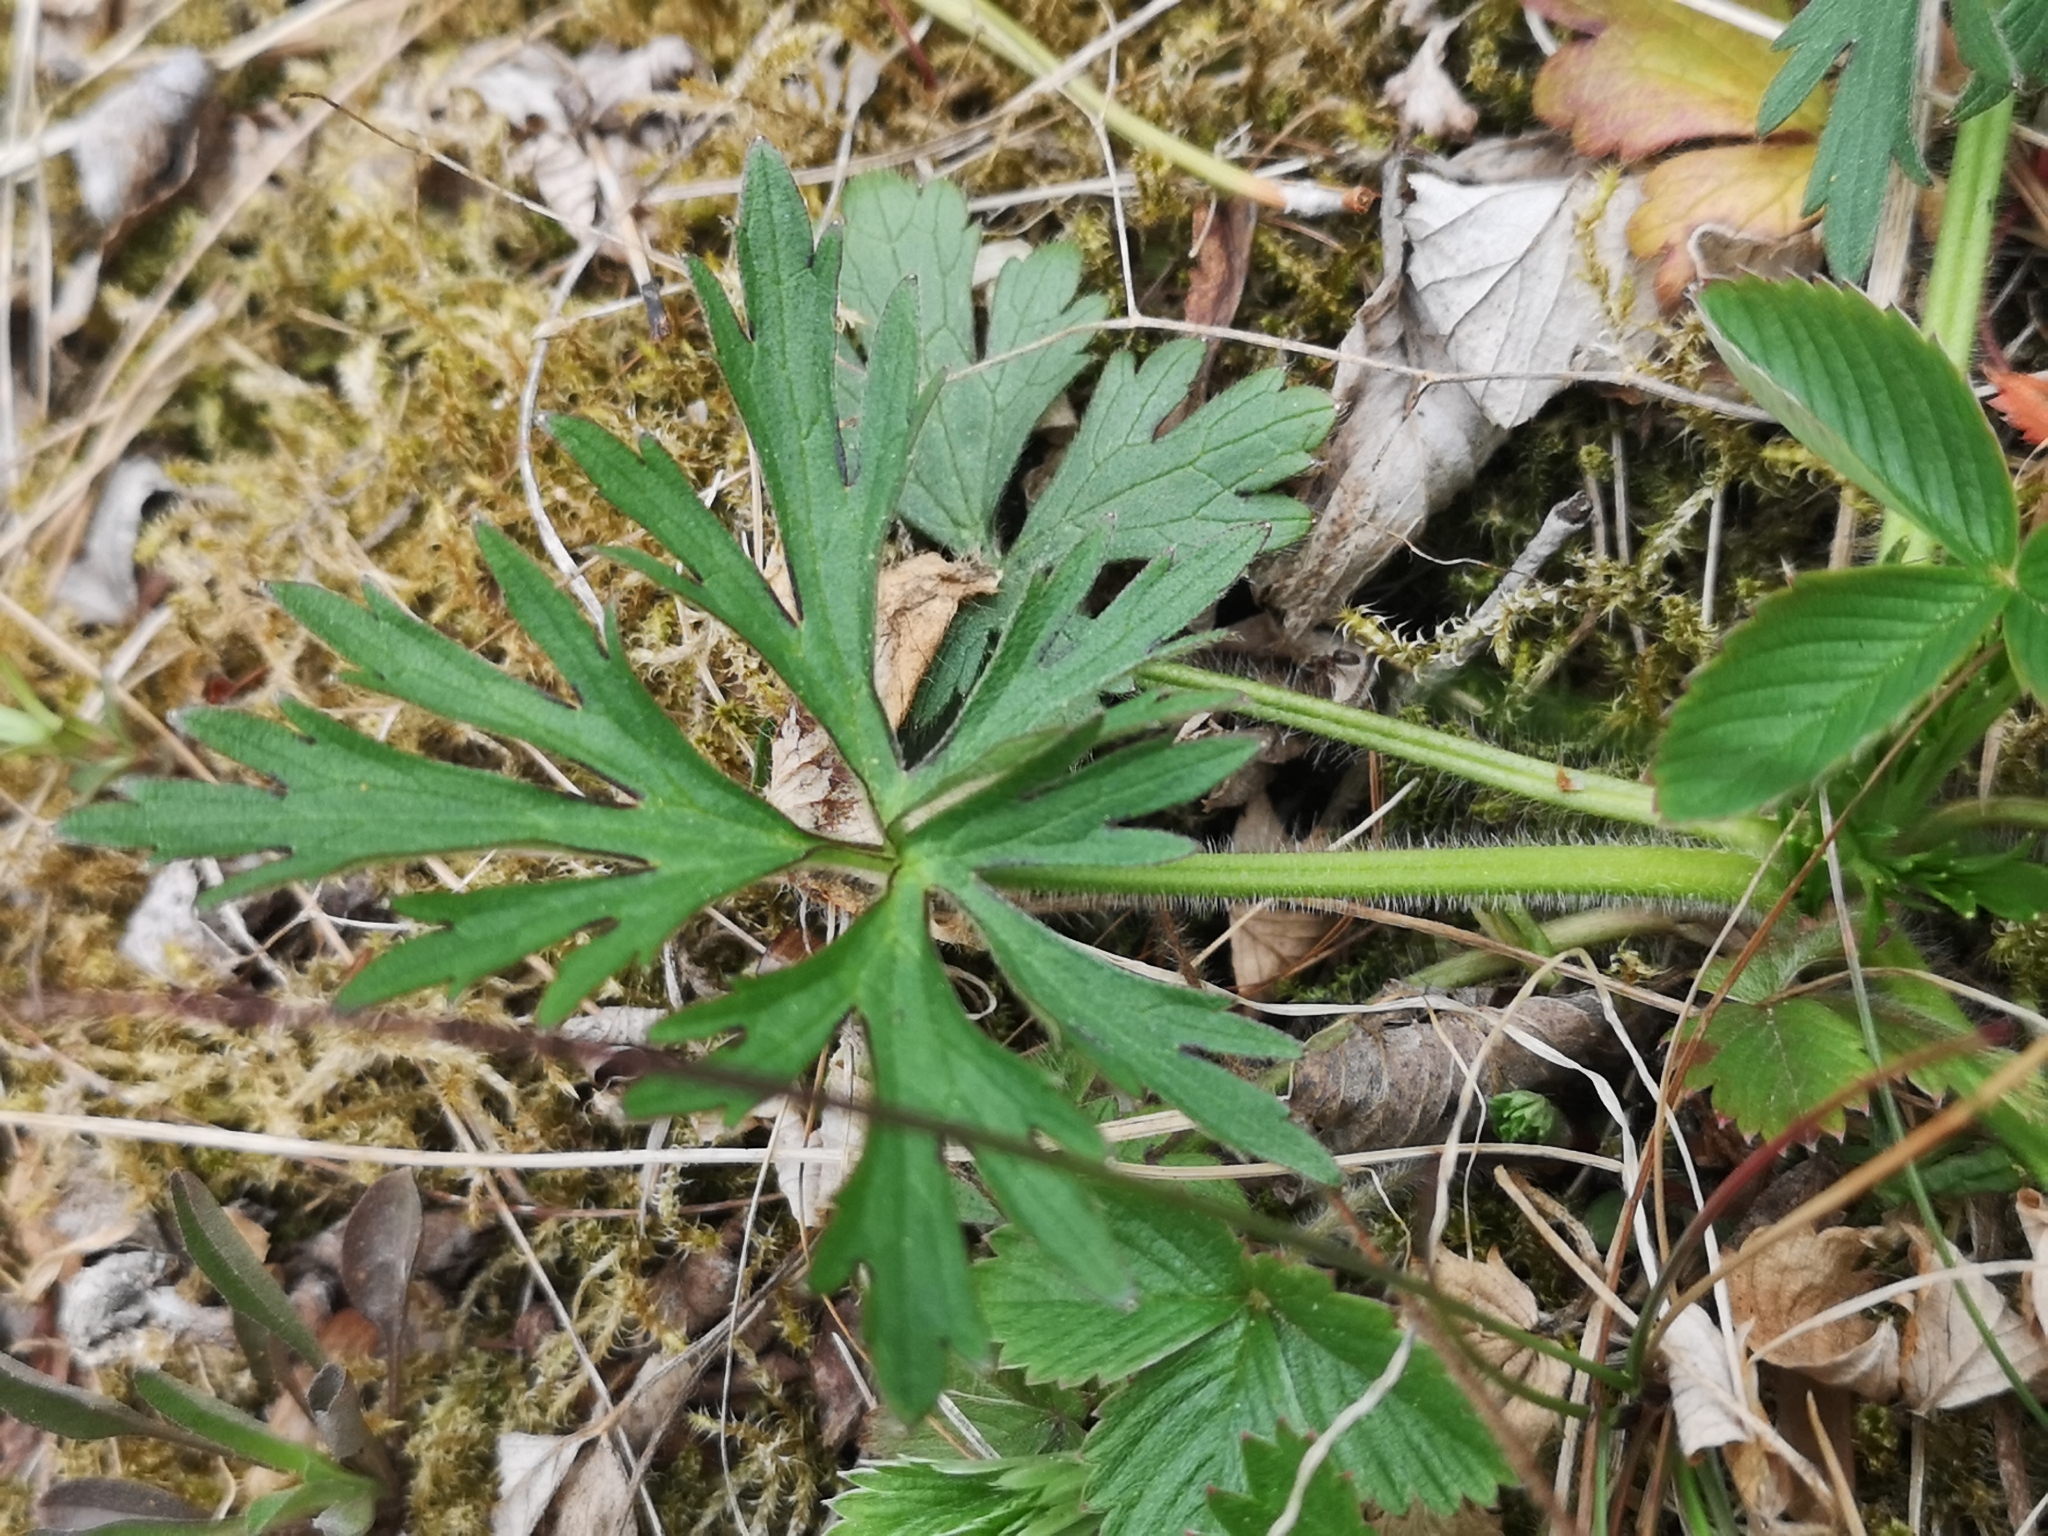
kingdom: Plantae
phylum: Tracheophyta
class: Magnoliopsida
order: Ranunculales
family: Ranunculaceae
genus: Ranunculus
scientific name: Ranunculus polyanthemos
